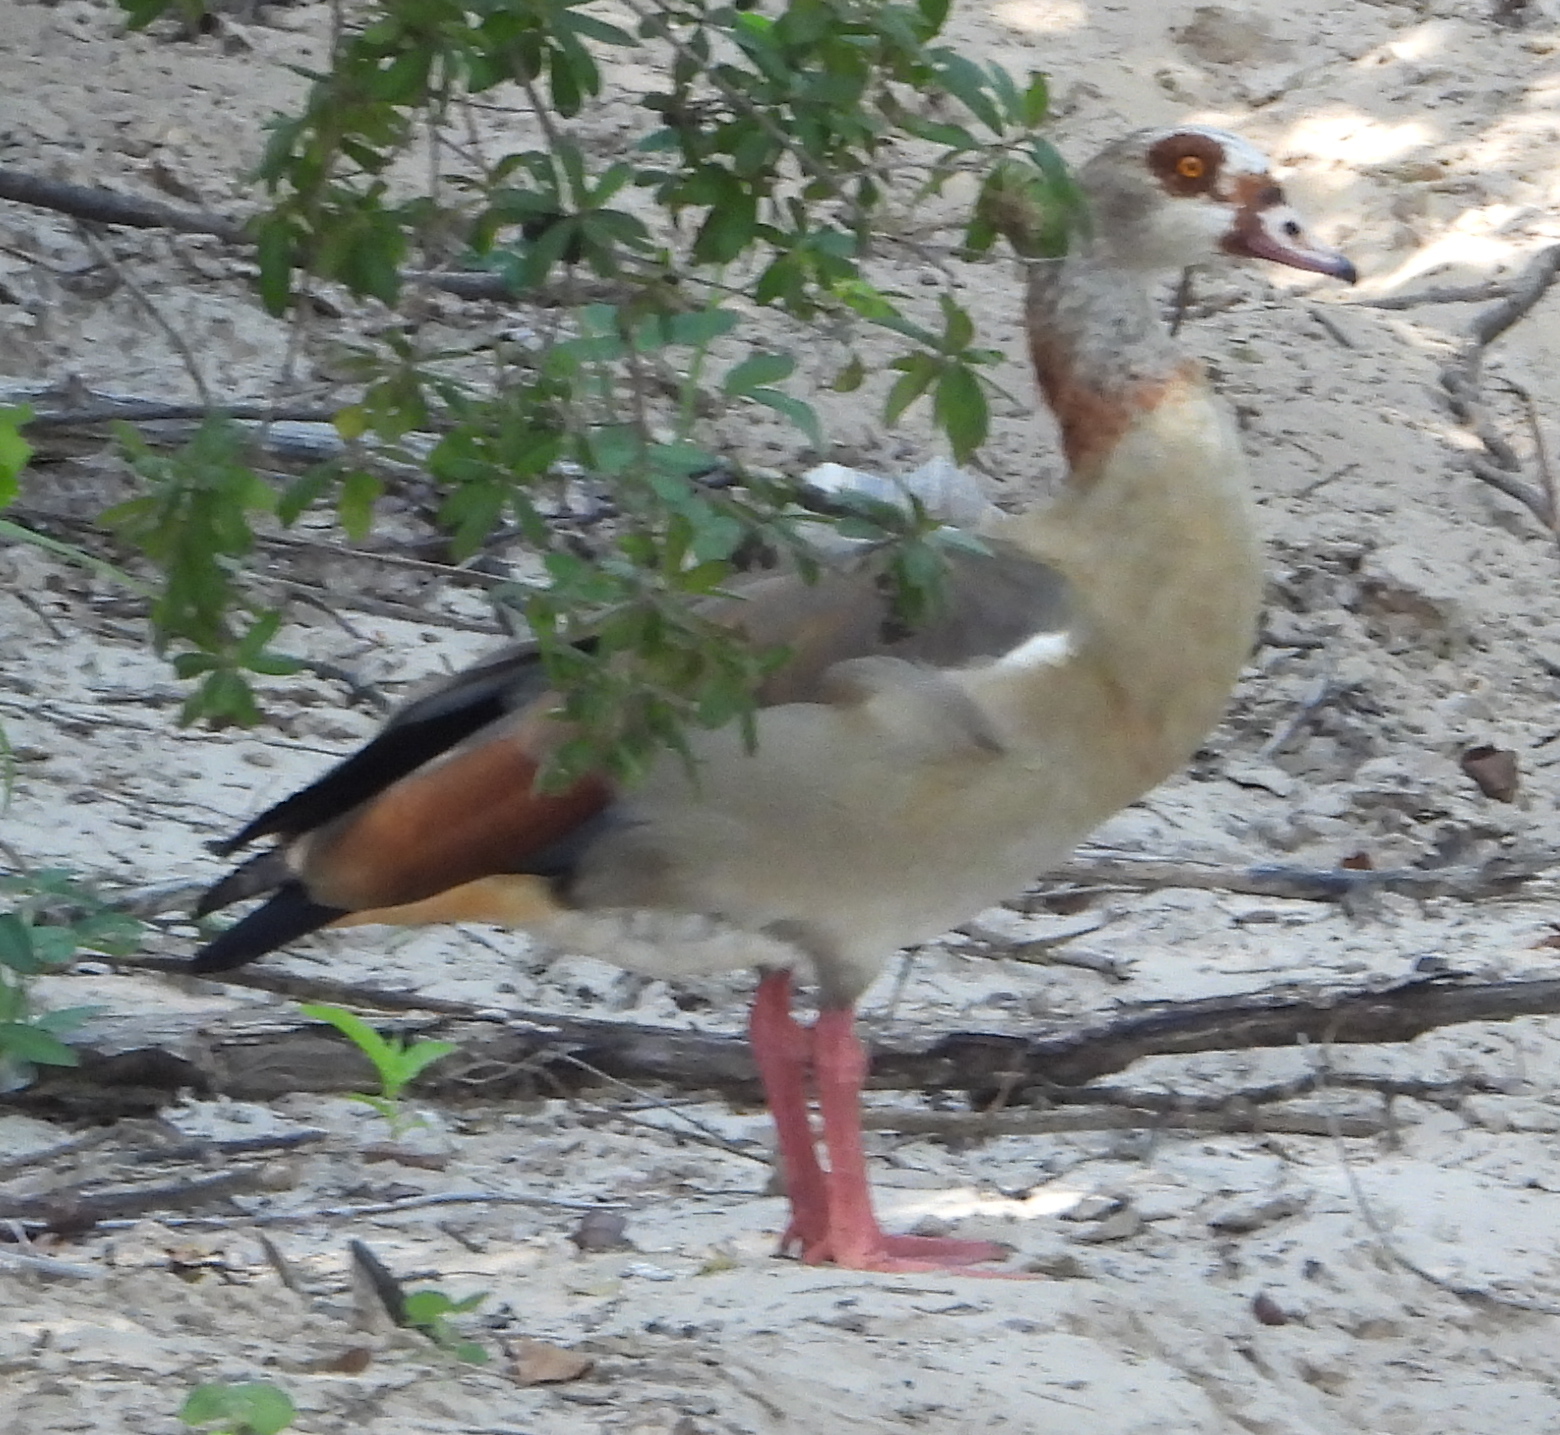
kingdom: Animalia
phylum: Chordata
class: Aves
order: Anseriformes
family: Anatidae
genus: Alopochen
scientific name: Alopochen aegyptiaca
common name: Egyptian goose
